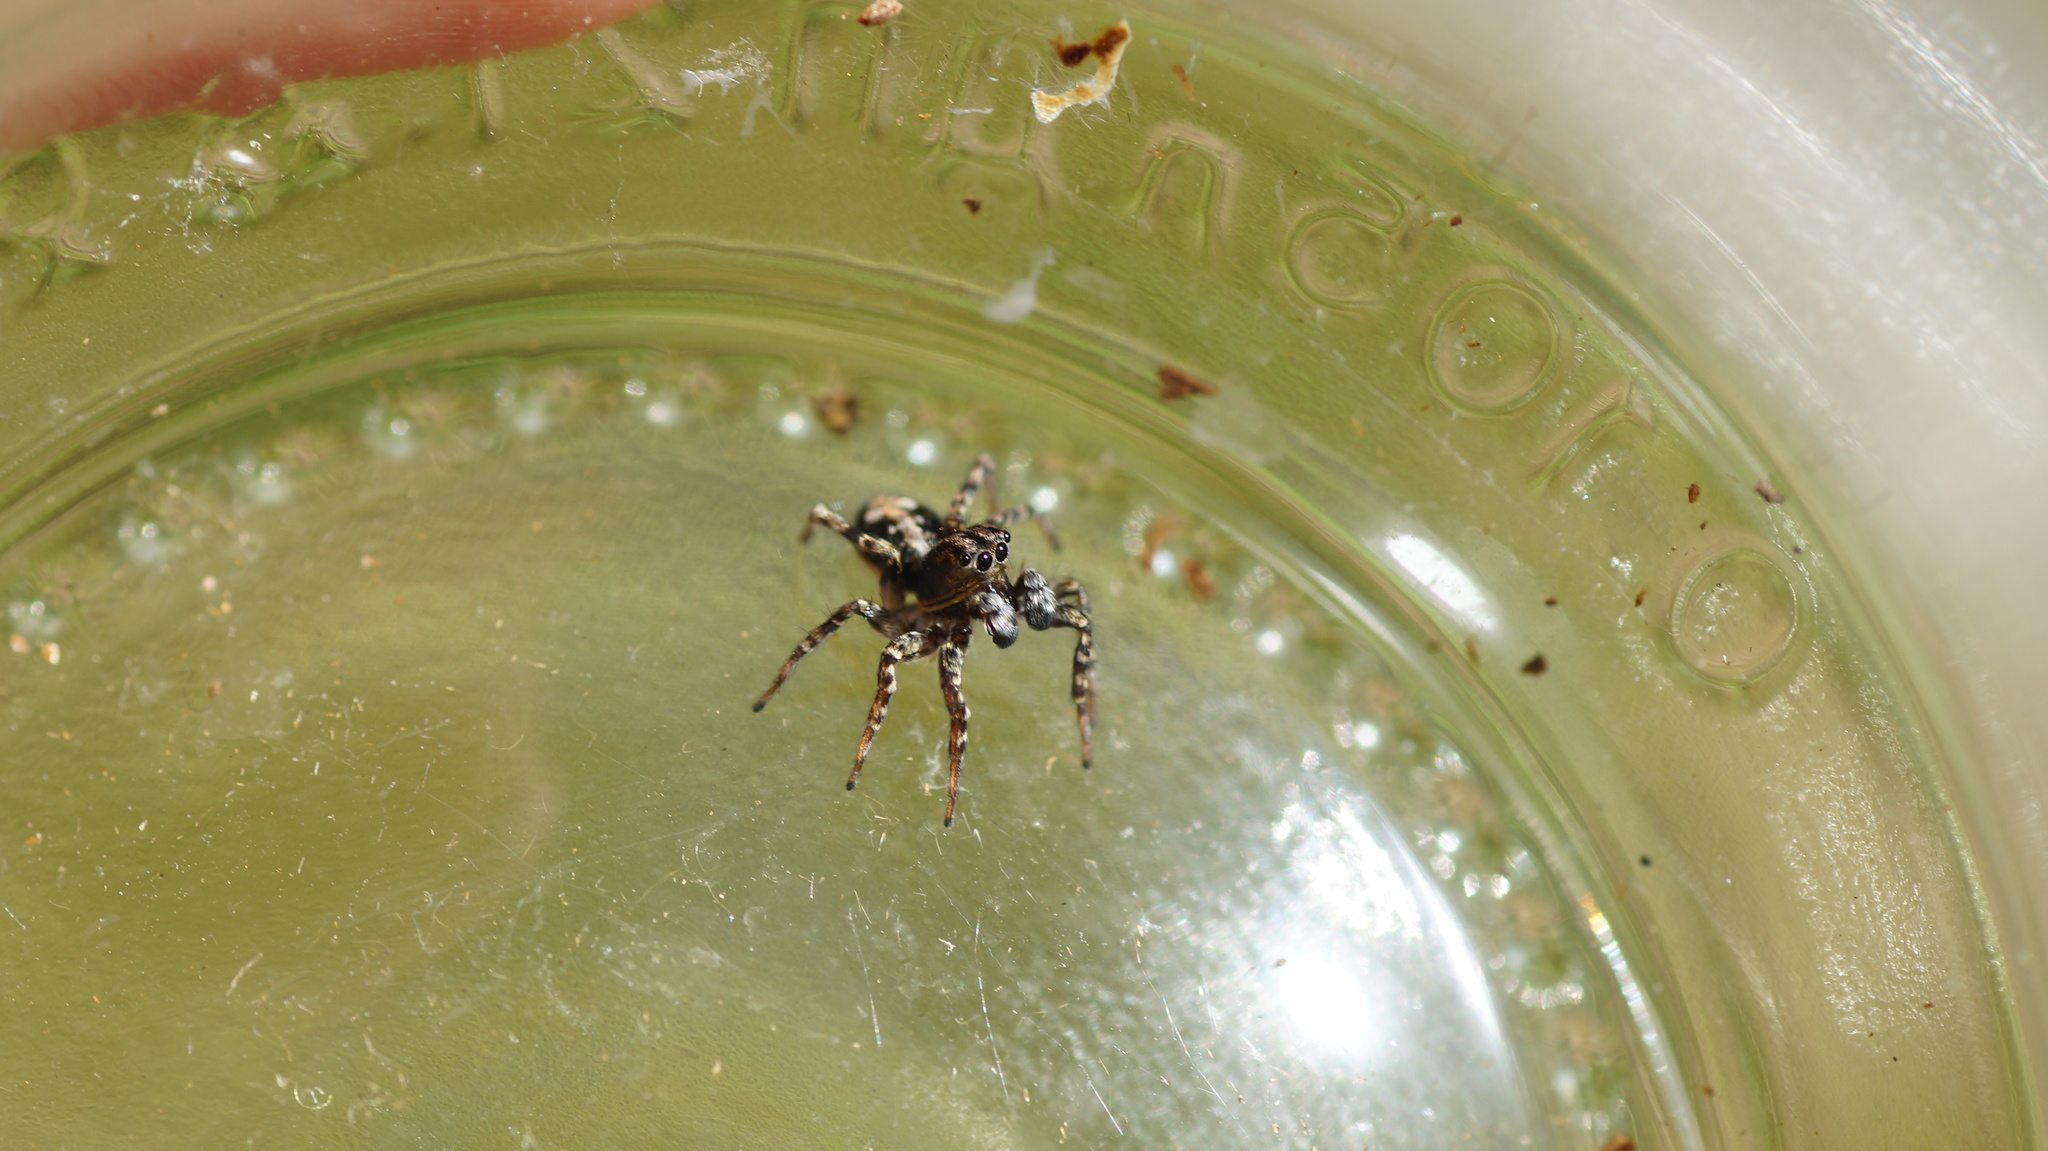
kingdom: Animalia
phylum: Arthropoda
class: Arachnida
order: Araneae
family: Salticidae
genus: Attulus
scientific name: Attulus terebratus
